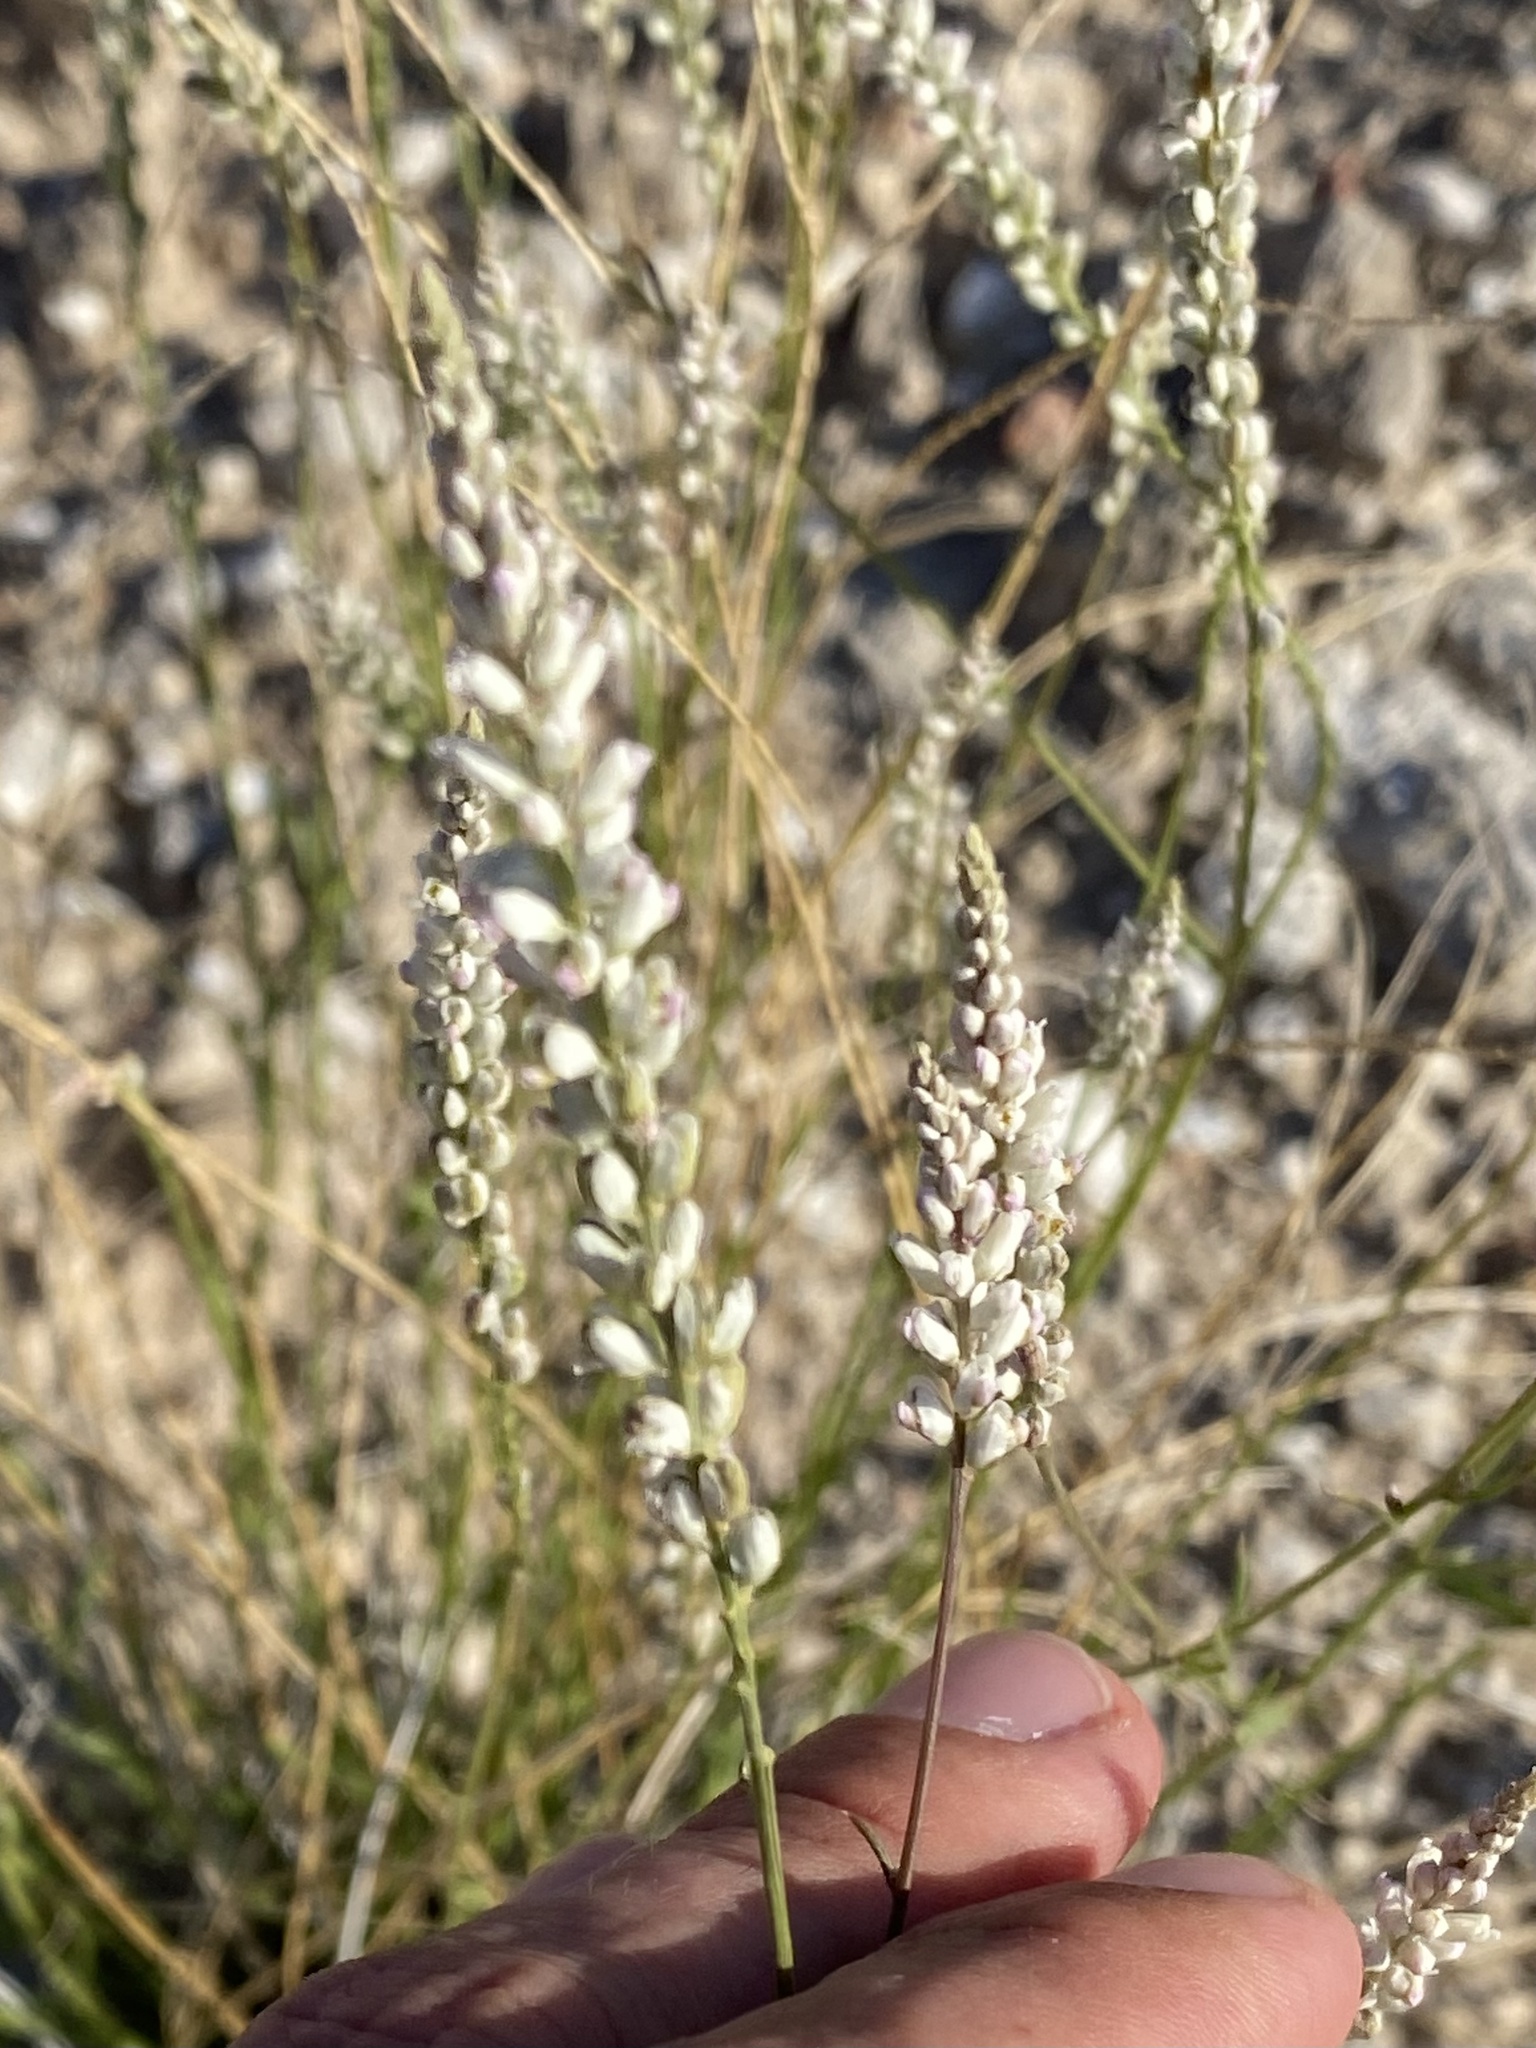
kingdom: Plantae
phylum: Tracheophyta
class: Magnoliopsida
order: Fabales
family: Polygalaceae
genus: Polygala
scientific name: Polygala alba
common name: White milkwort
